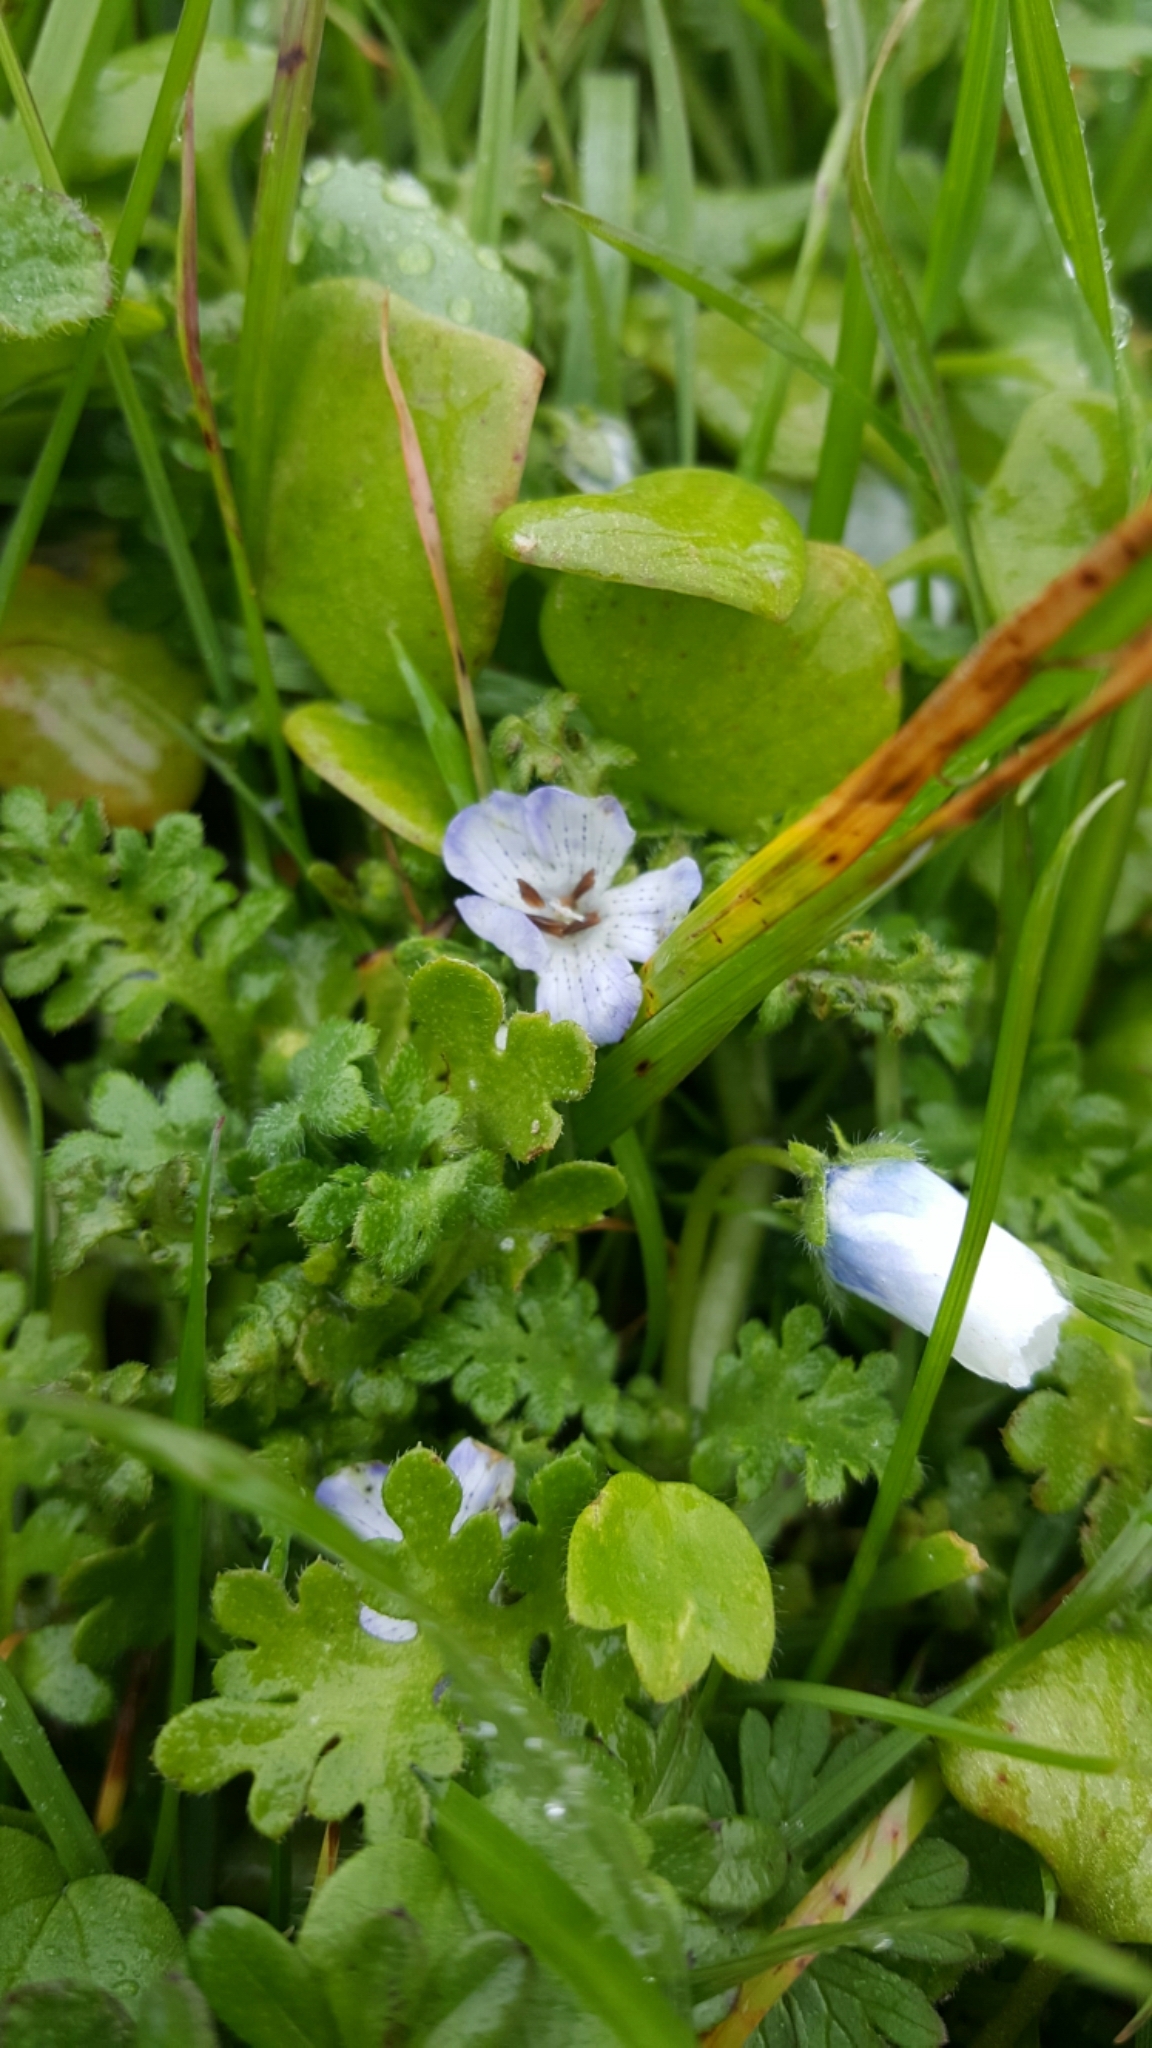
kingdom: Plantae
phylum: Tracheophyta
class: Magnoliopsida
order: Boraginales
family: Hydrophyllaceae
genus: Nemophila
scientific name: Nemophila menziesii
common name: Baby's-blue-eyes
